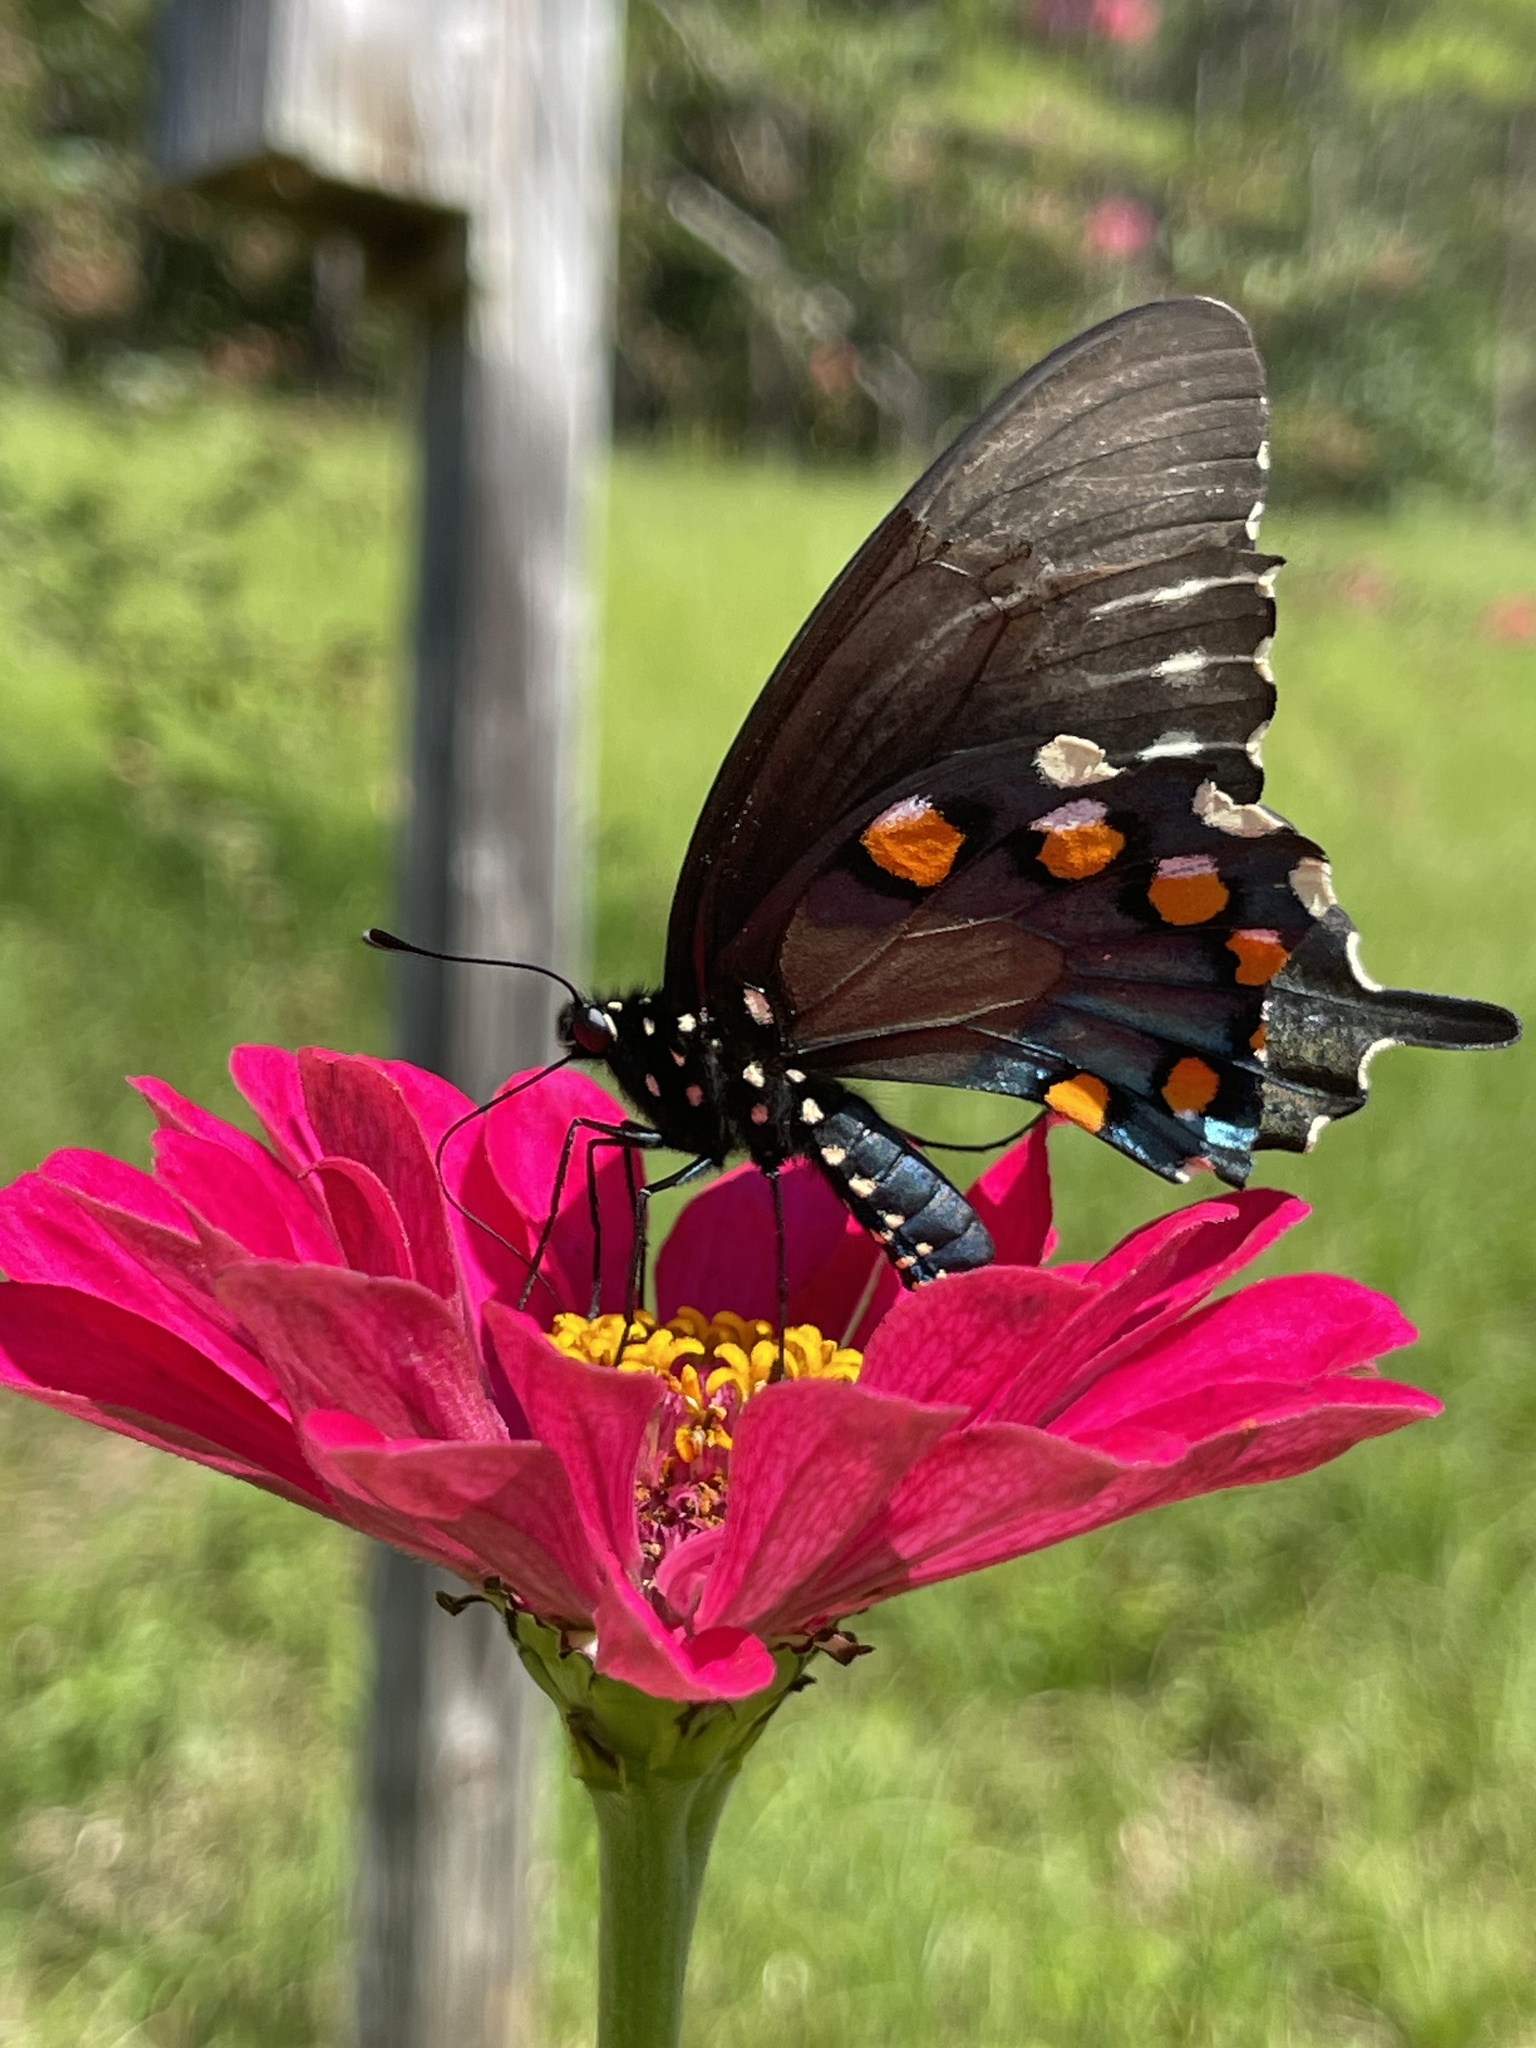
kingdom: Animalia
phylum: Arthropoda
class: Insecta
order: Lepidoptera
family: Papilionidae
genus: Battus
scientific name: Battus philenor
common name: Pipevine swallowtail
